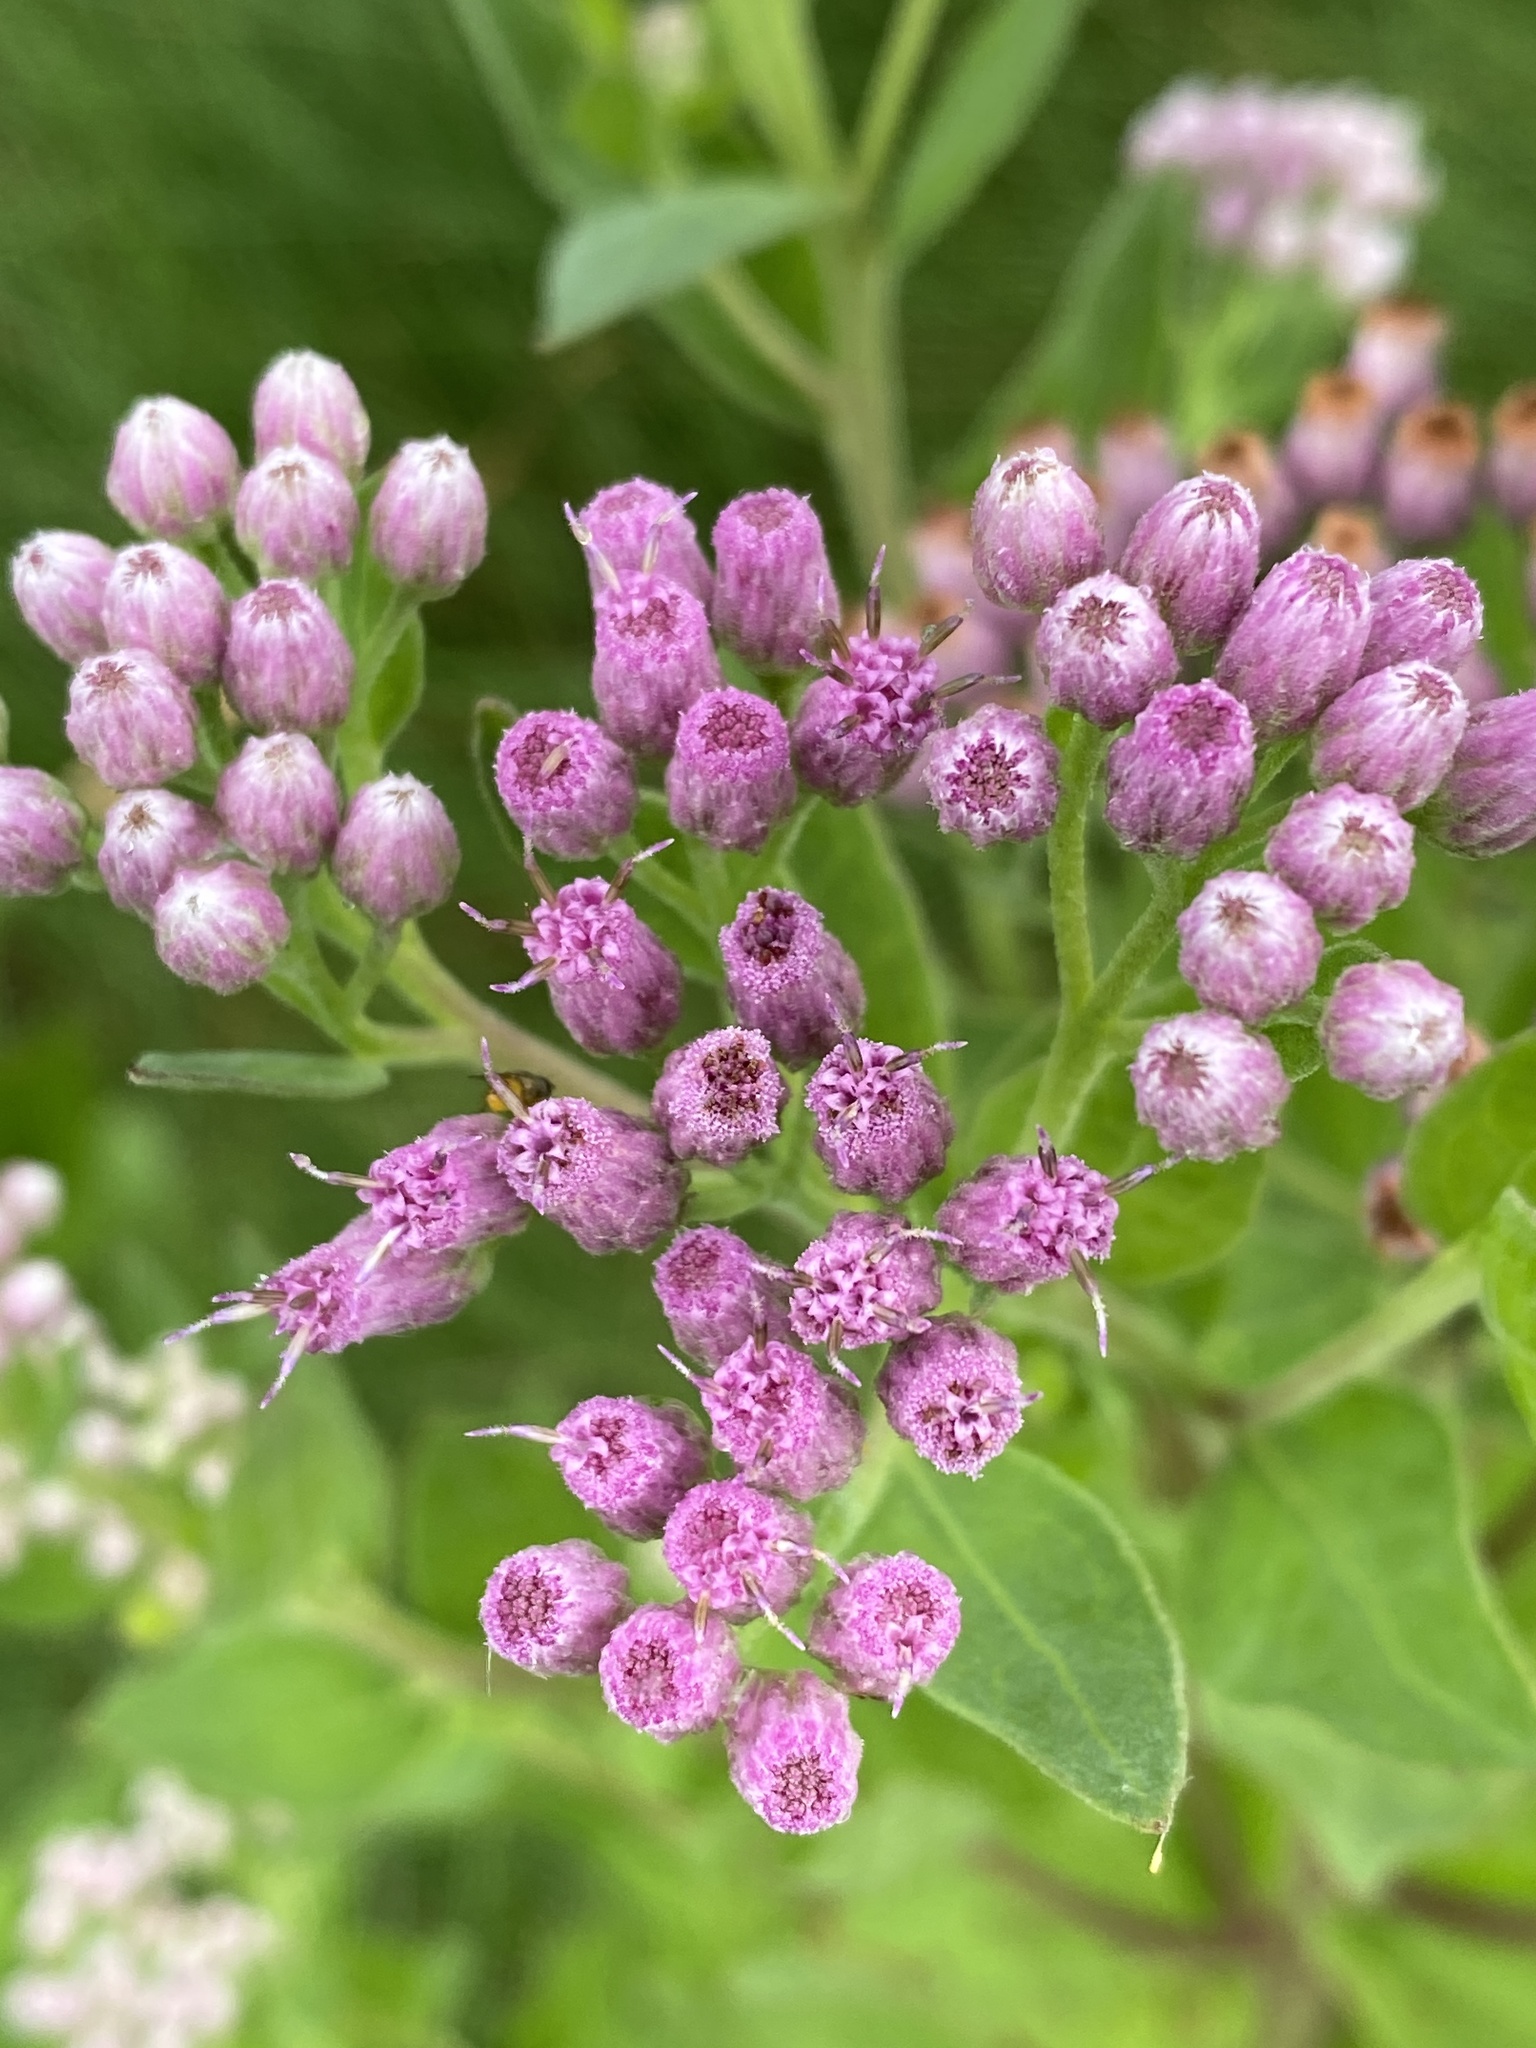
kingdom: Plantae
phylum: Tracheophyta
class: Magnoliopsida
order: Asterales
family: Asteraceae
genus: Pluchea
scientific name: Pluchea odorata
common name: Saltmarsh fleabane
